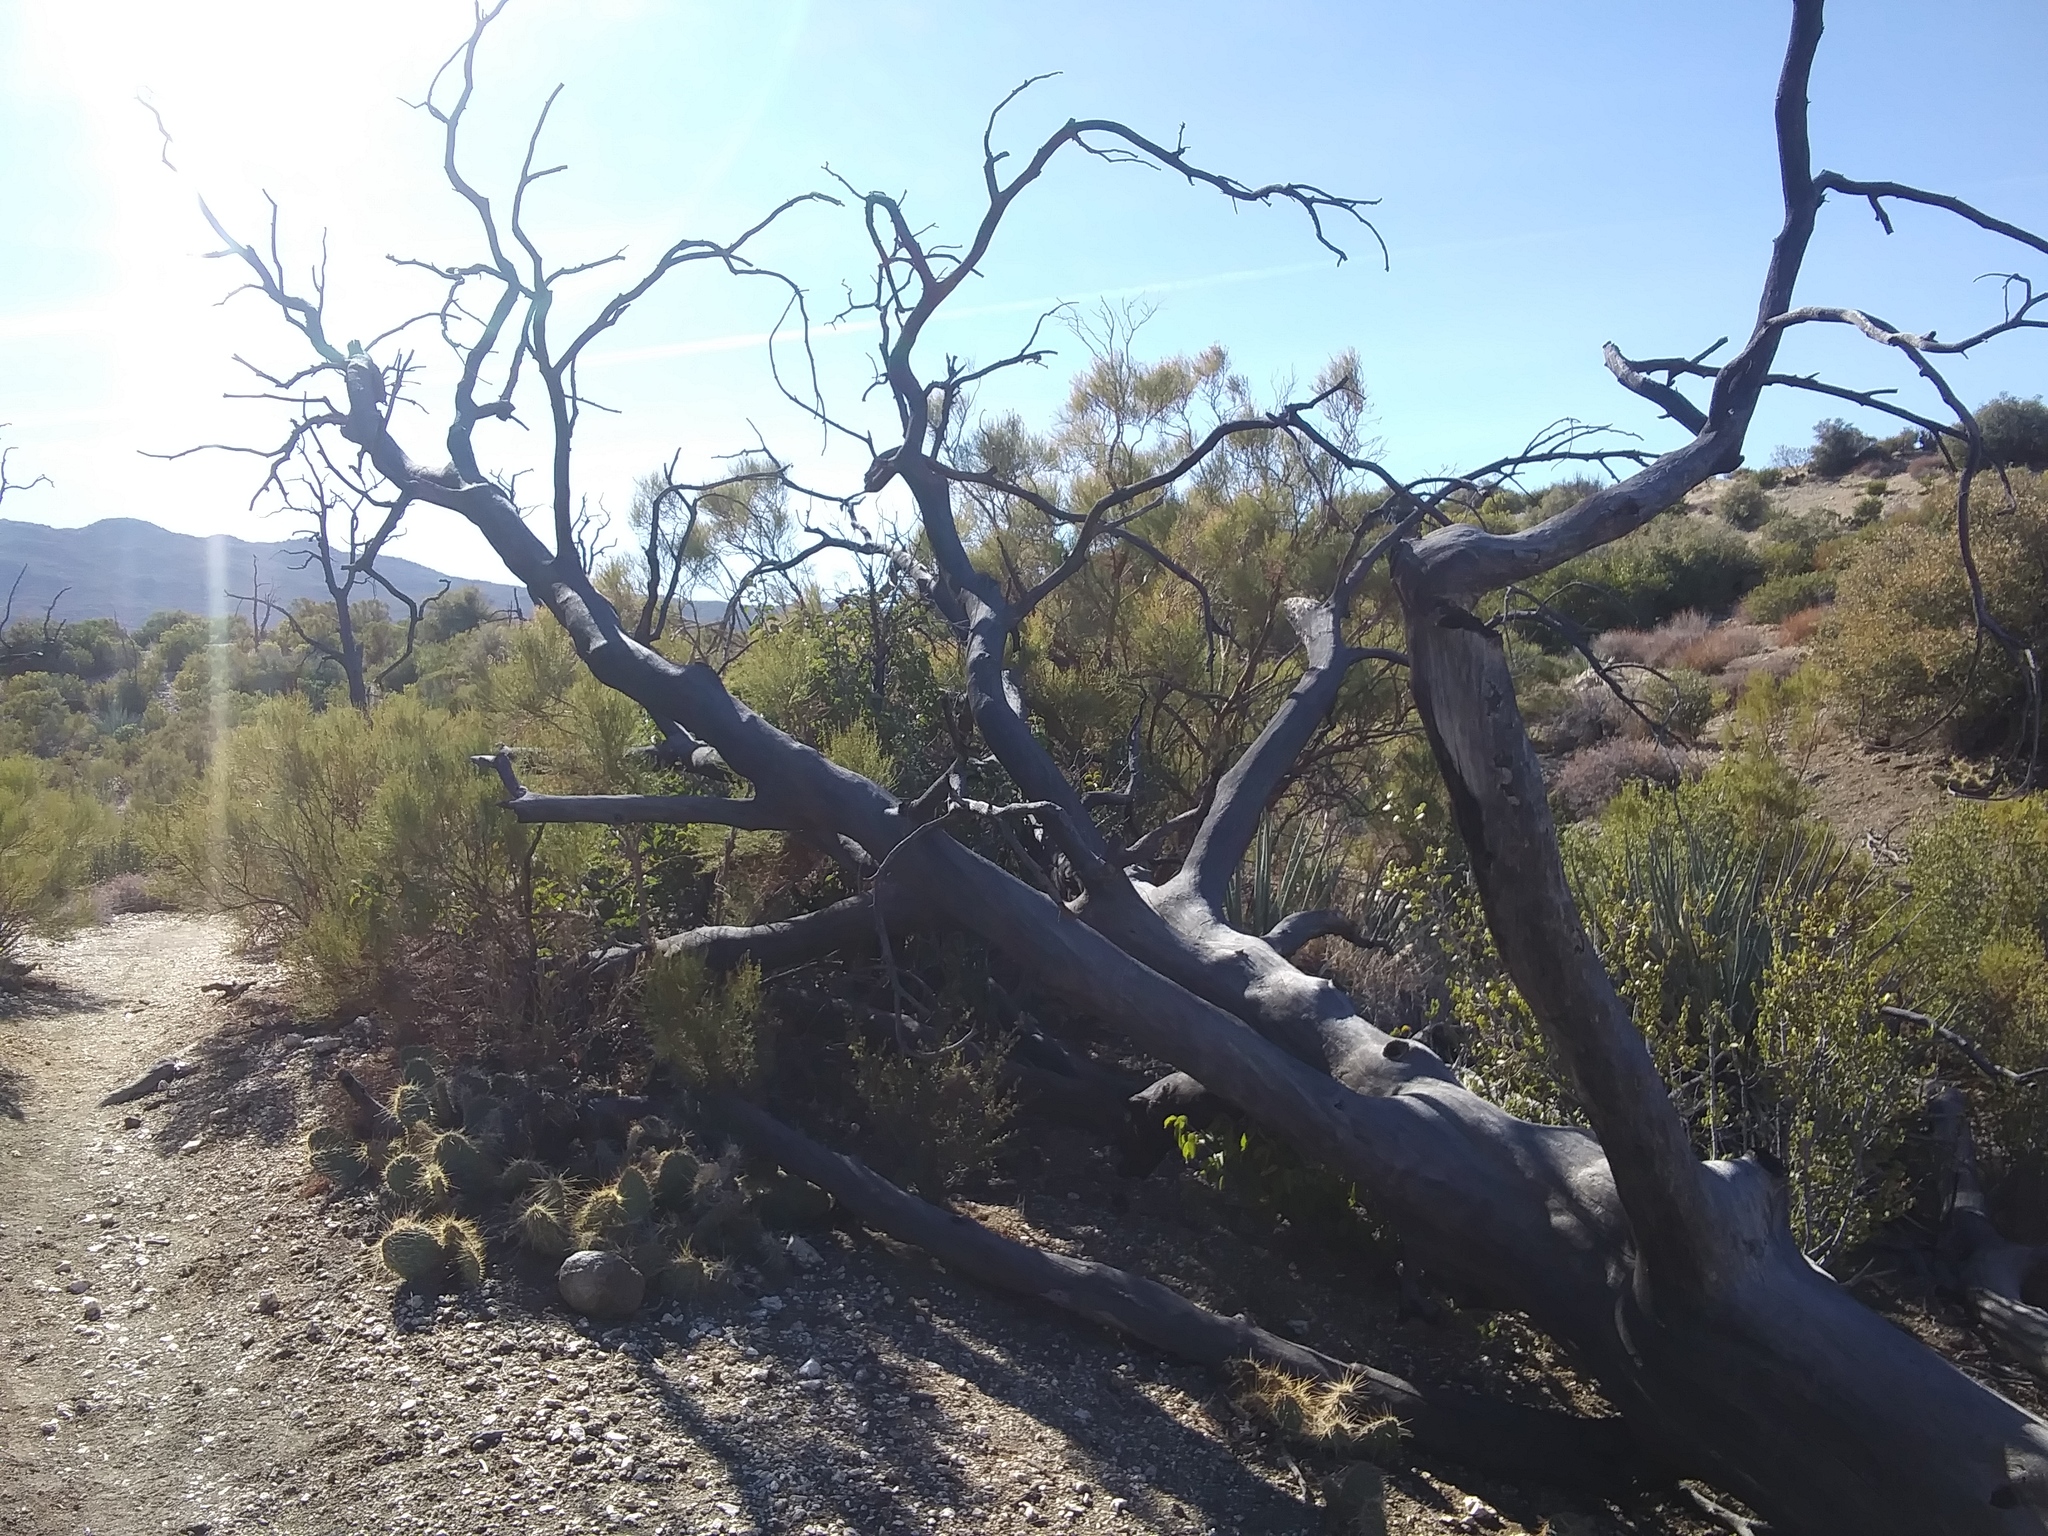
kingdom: Plantae
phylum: Tracheophyta
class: Pinopsida
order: Pinales
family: Pinaceae
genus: Pinus
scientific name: Pinus monophylla
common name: One-leaved nut pine
